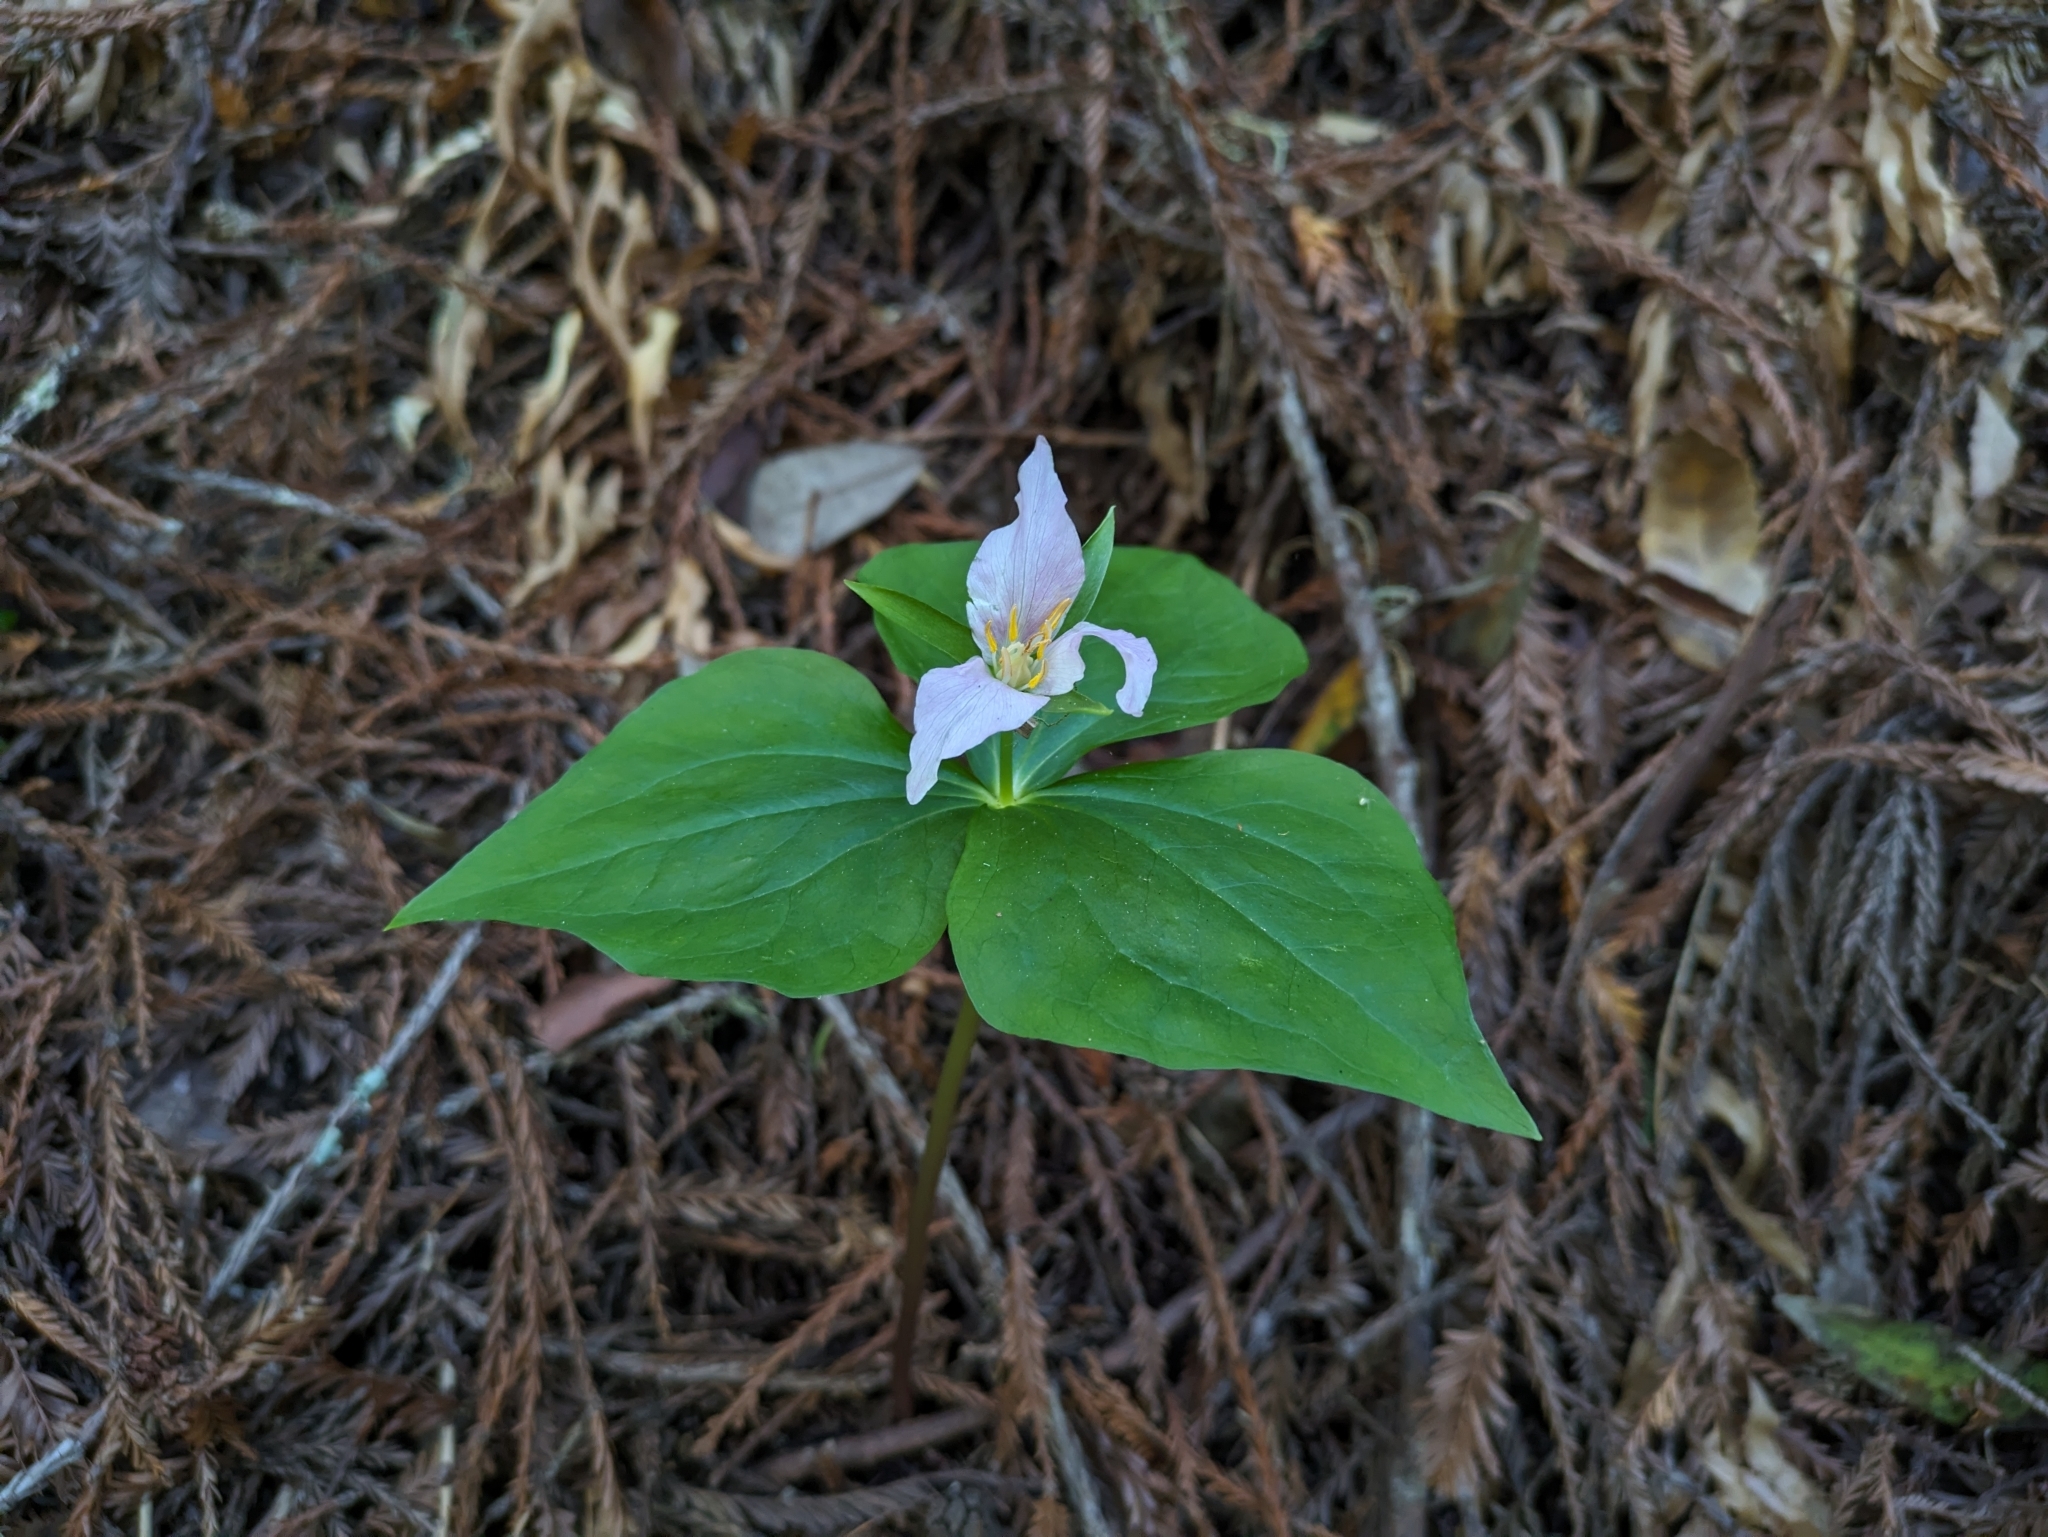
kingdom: Plantae
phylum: Tracheophyta
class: Liliopsida
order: Liliales
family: Melanthiaceae
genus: Trillium
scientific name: Trillium ovatum
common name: Pacific trillium
